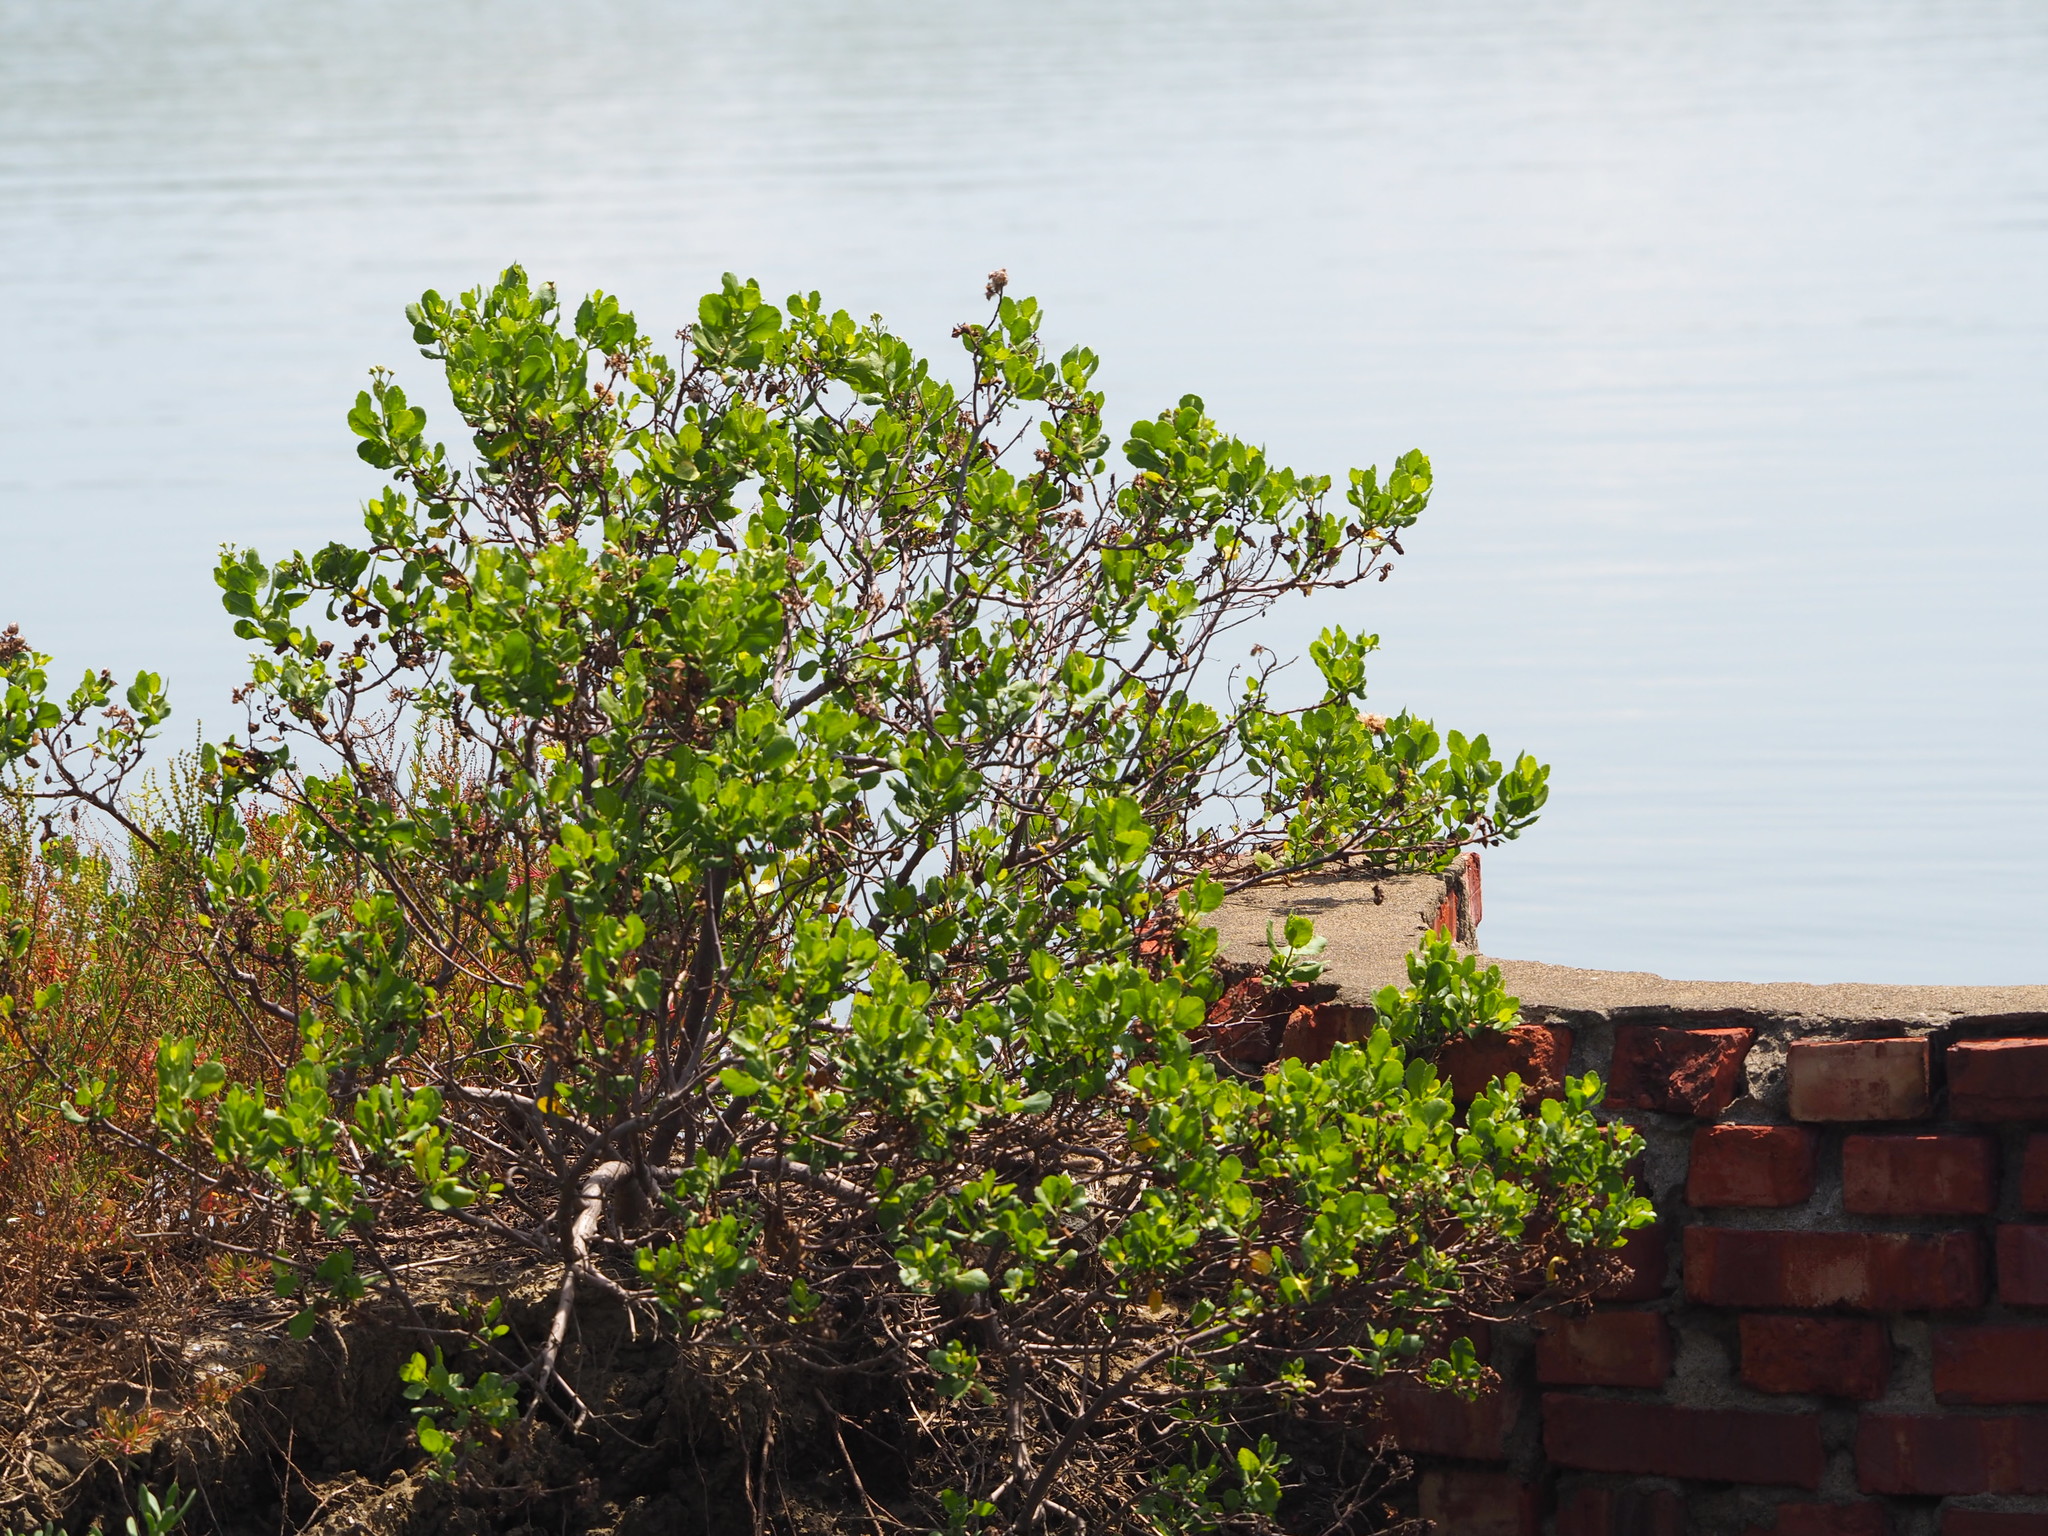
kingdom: Plantae
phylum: Tracheophyta
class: Magnoliopsida
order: Asterales
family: Asteraceae
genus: Pluchea
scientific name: Pluchea indica
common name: Indian fleabane
